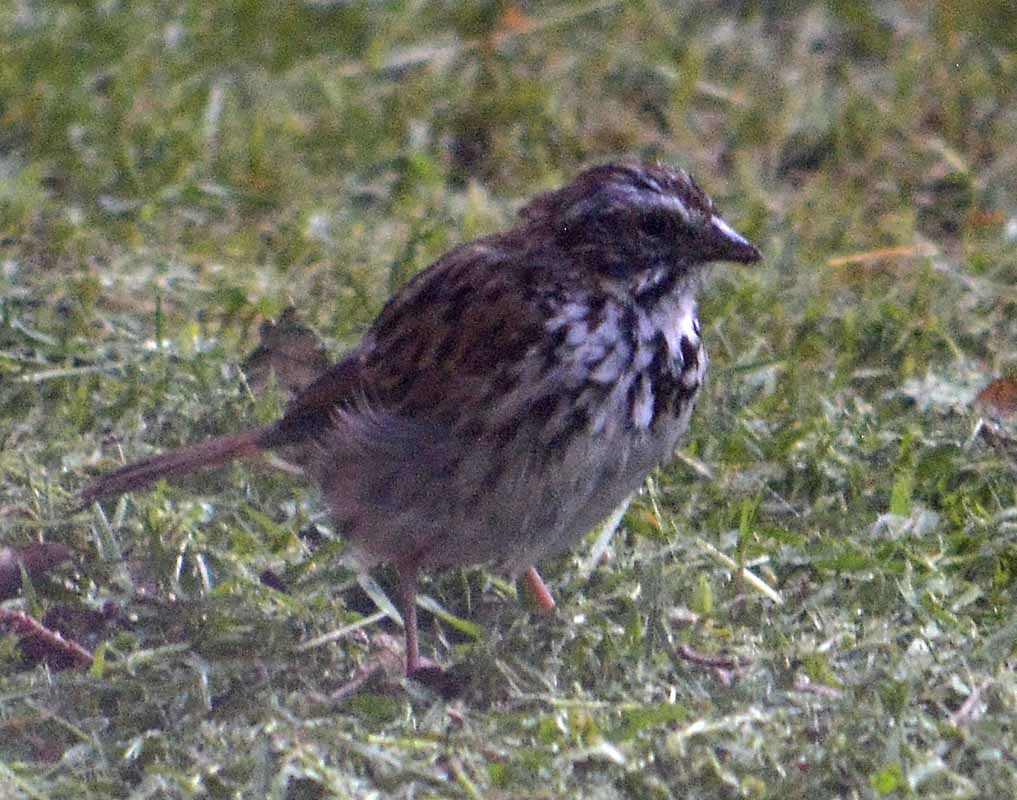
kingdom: Animalia
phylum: Chordata
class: Aves
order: Passeriformes
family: Passerellidae
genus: Melospiza
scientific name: Melospiza melodia
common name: Song sparrow
